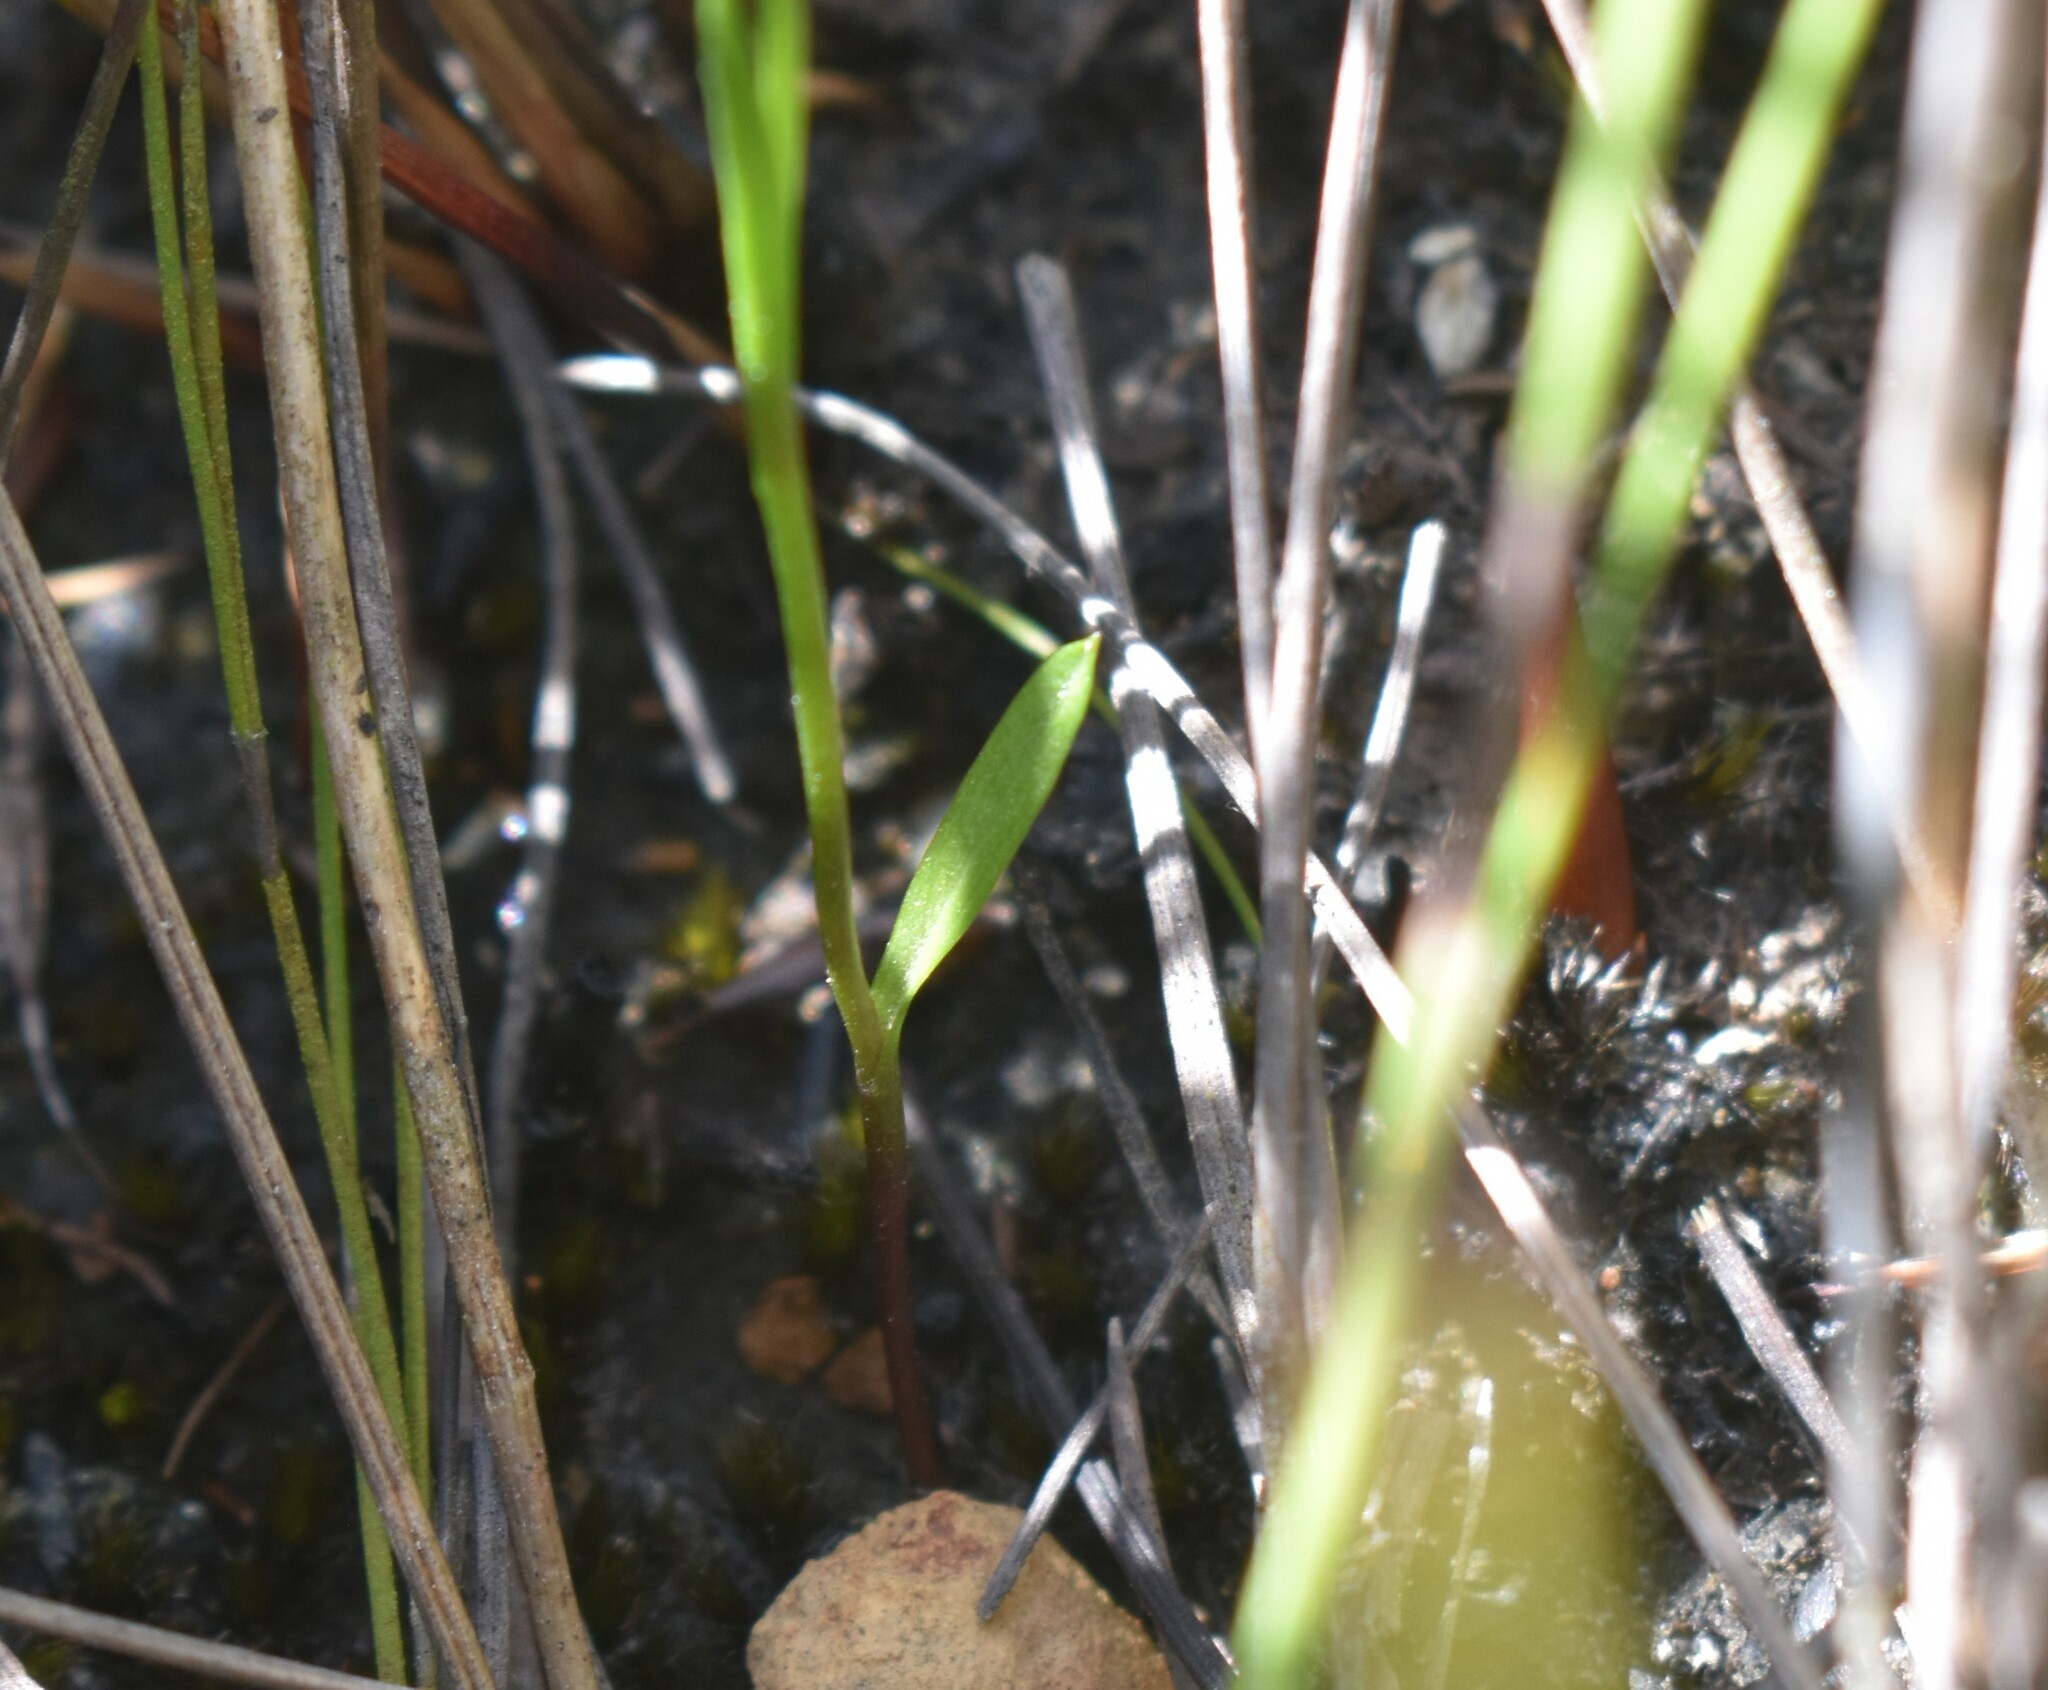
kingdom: Plantae
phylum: Tracheophyta
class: Liliopsida
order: Asparagales
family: Orchidaceae
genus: Disperis
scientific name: Disperis paludosa
